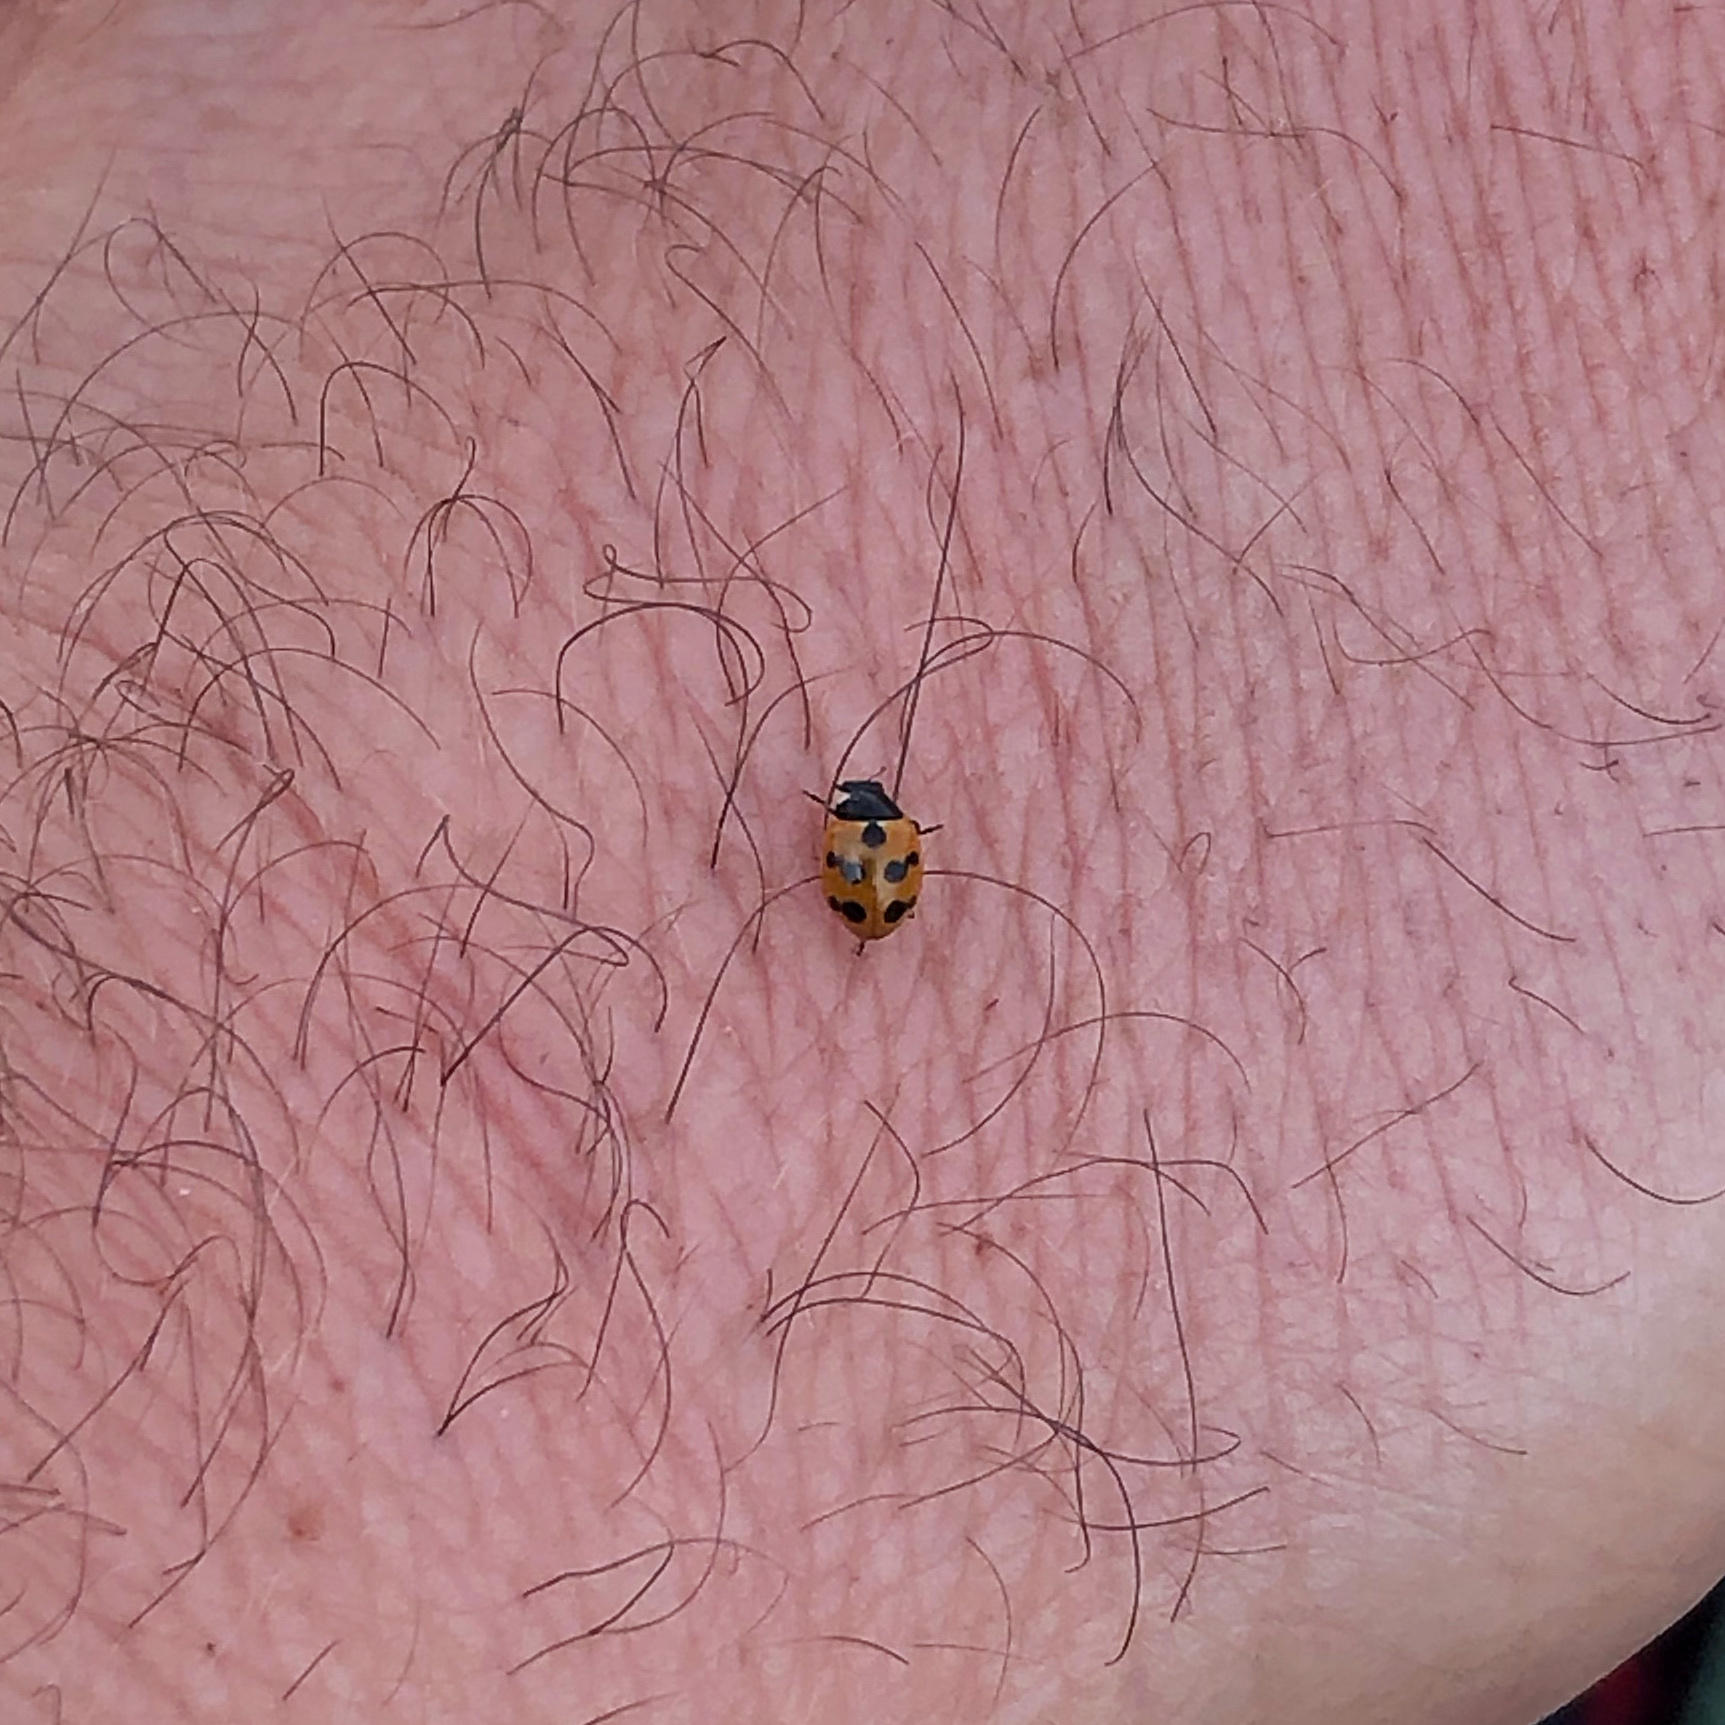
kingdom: Animalia
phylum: Arthropoda
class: Insecta
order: Coleoptera
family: Coccinellidae
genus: Coccinella
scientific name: Coccinella undecimpunctata
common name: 11-spot ladybird
